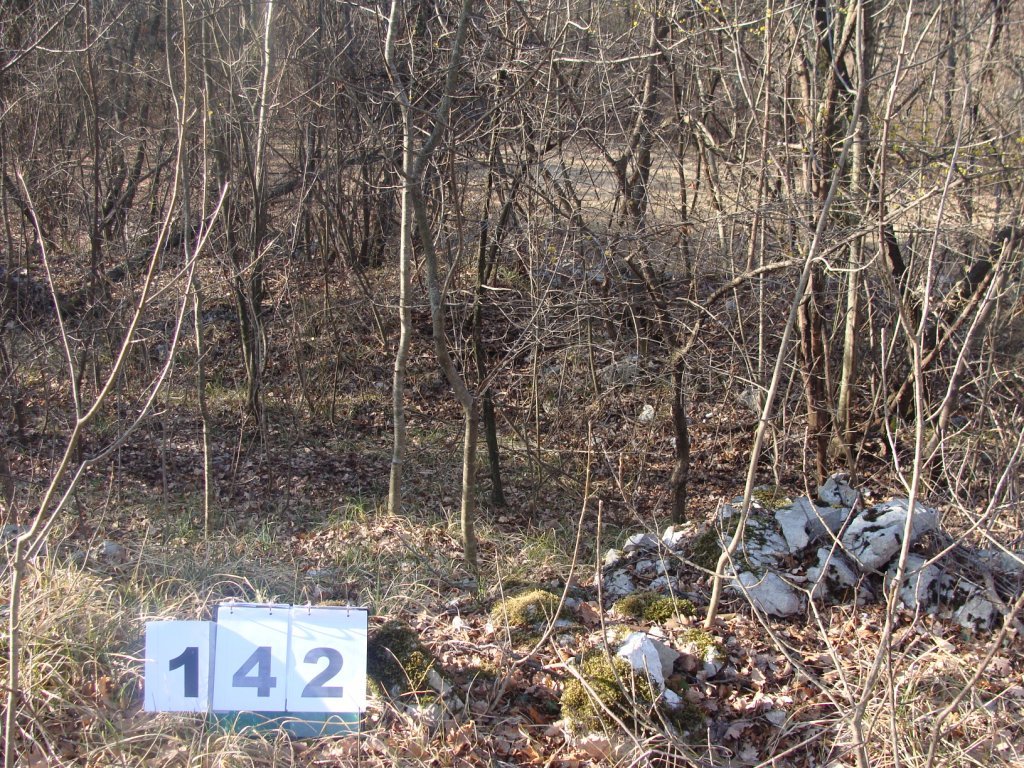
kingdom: Plantae
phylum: Tracheophyta
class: Magnoliopsida
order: Cornales
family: Cornaceae
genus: Cornus
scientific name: Cornus mas
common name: Cornelian-cherry
